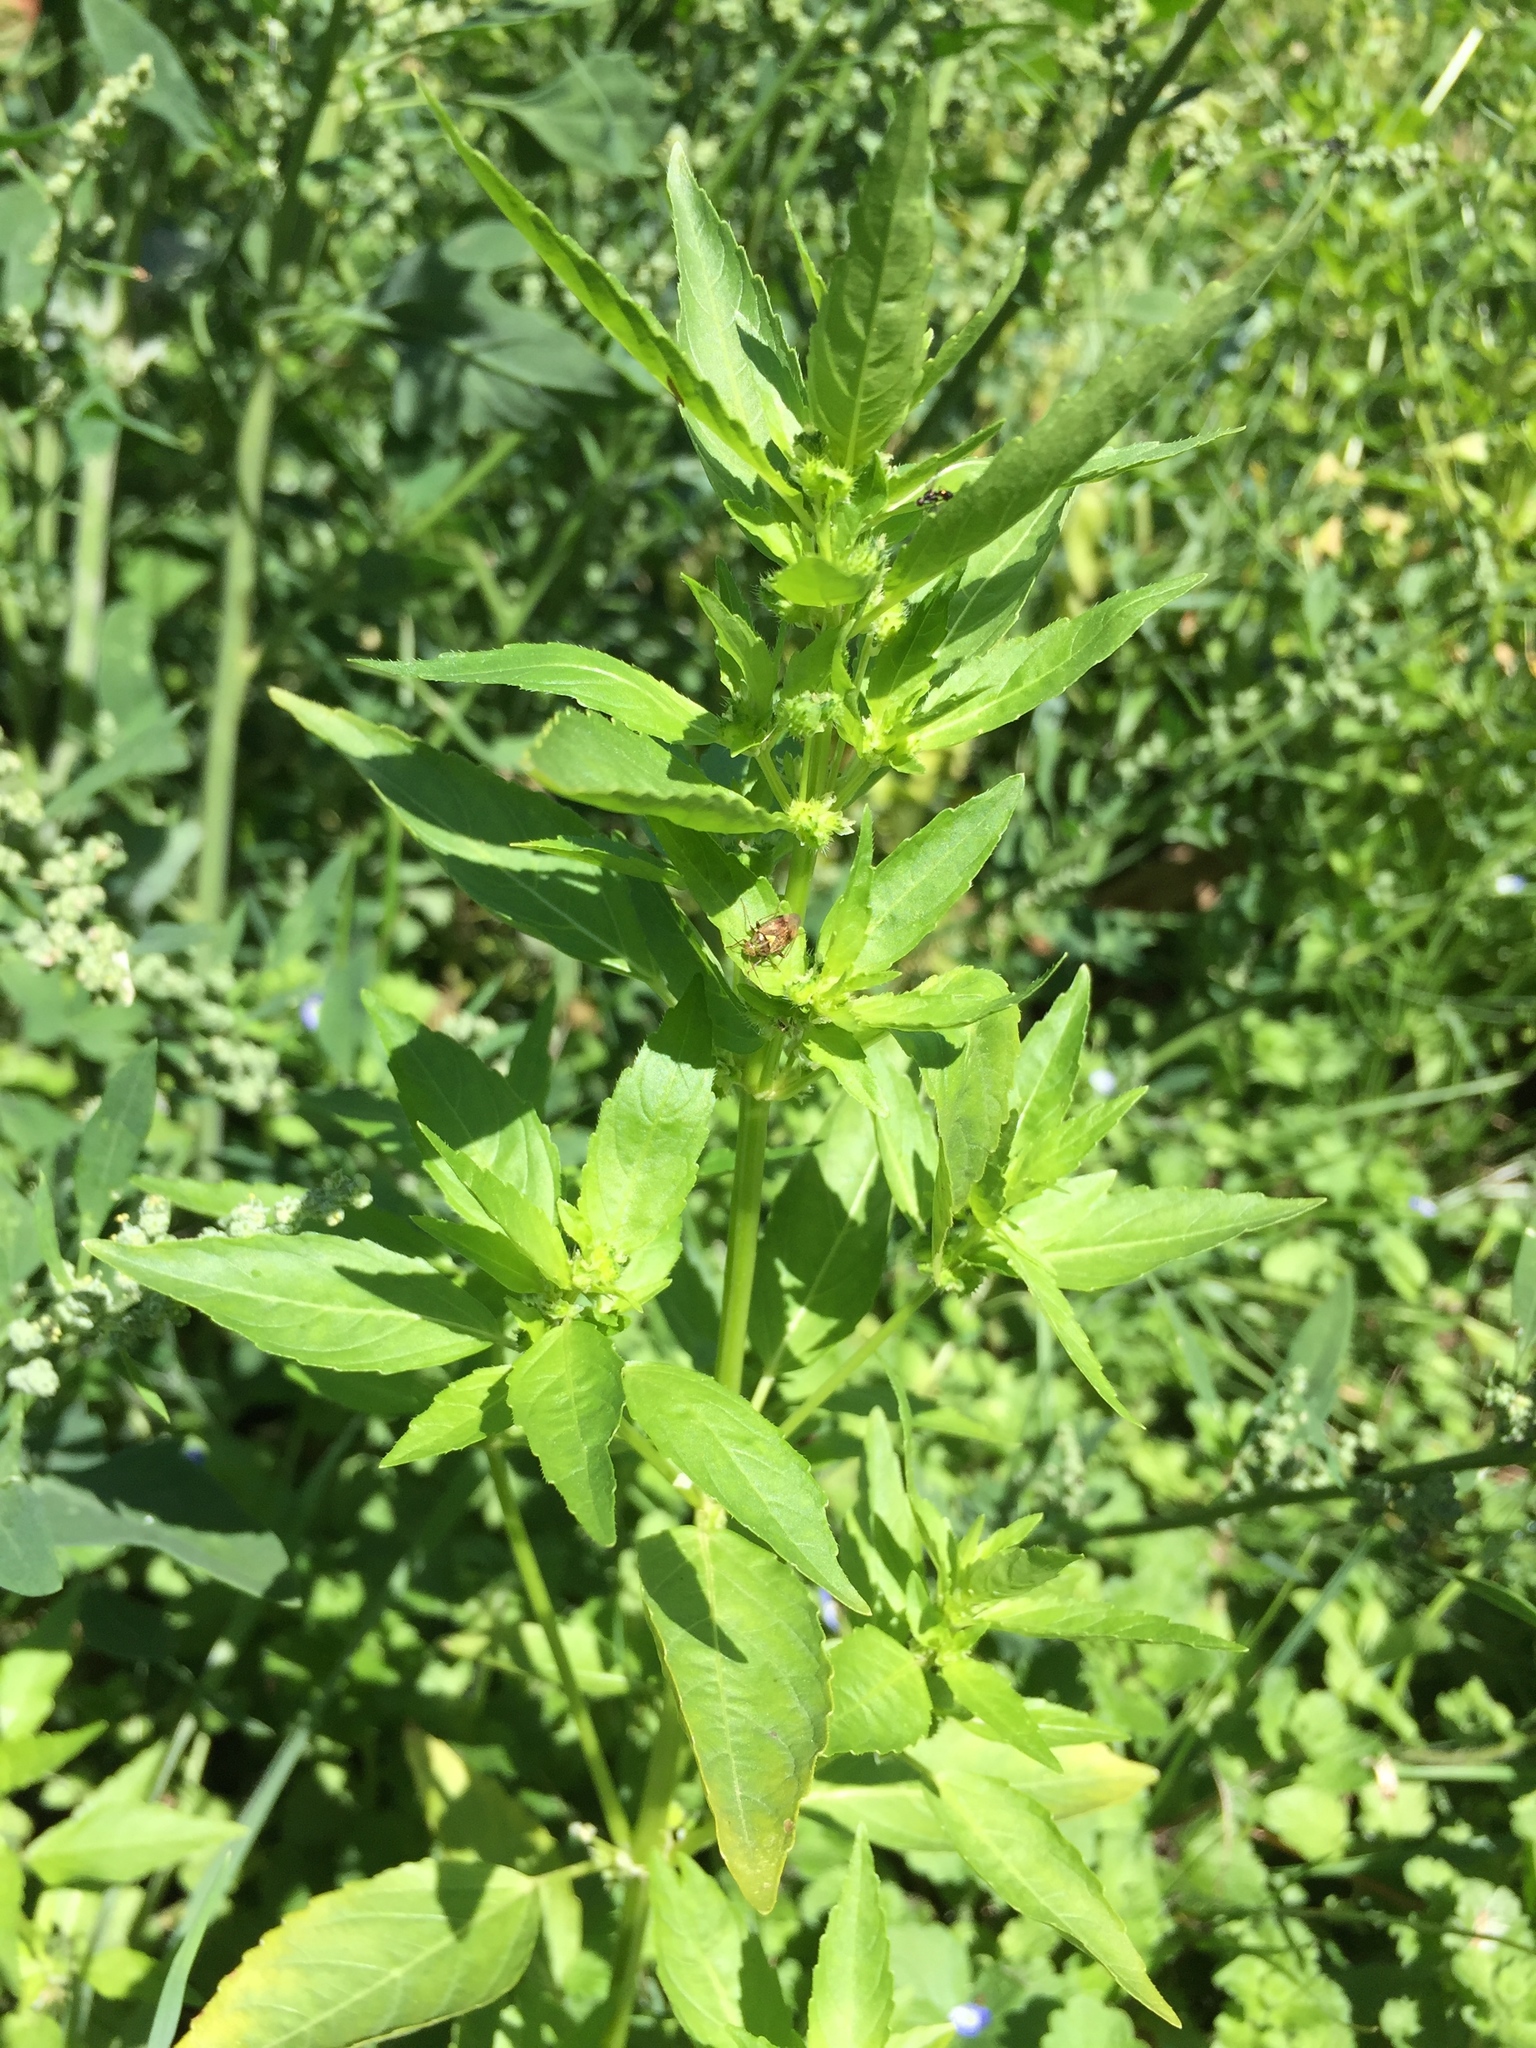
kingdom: Plantae
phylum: Tracheophyta
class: Magnoliopsida
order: Malpighiales
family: Euphorbiaceae
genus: Mercurialis
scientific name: Mercurialis annua
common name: Annual mercury
